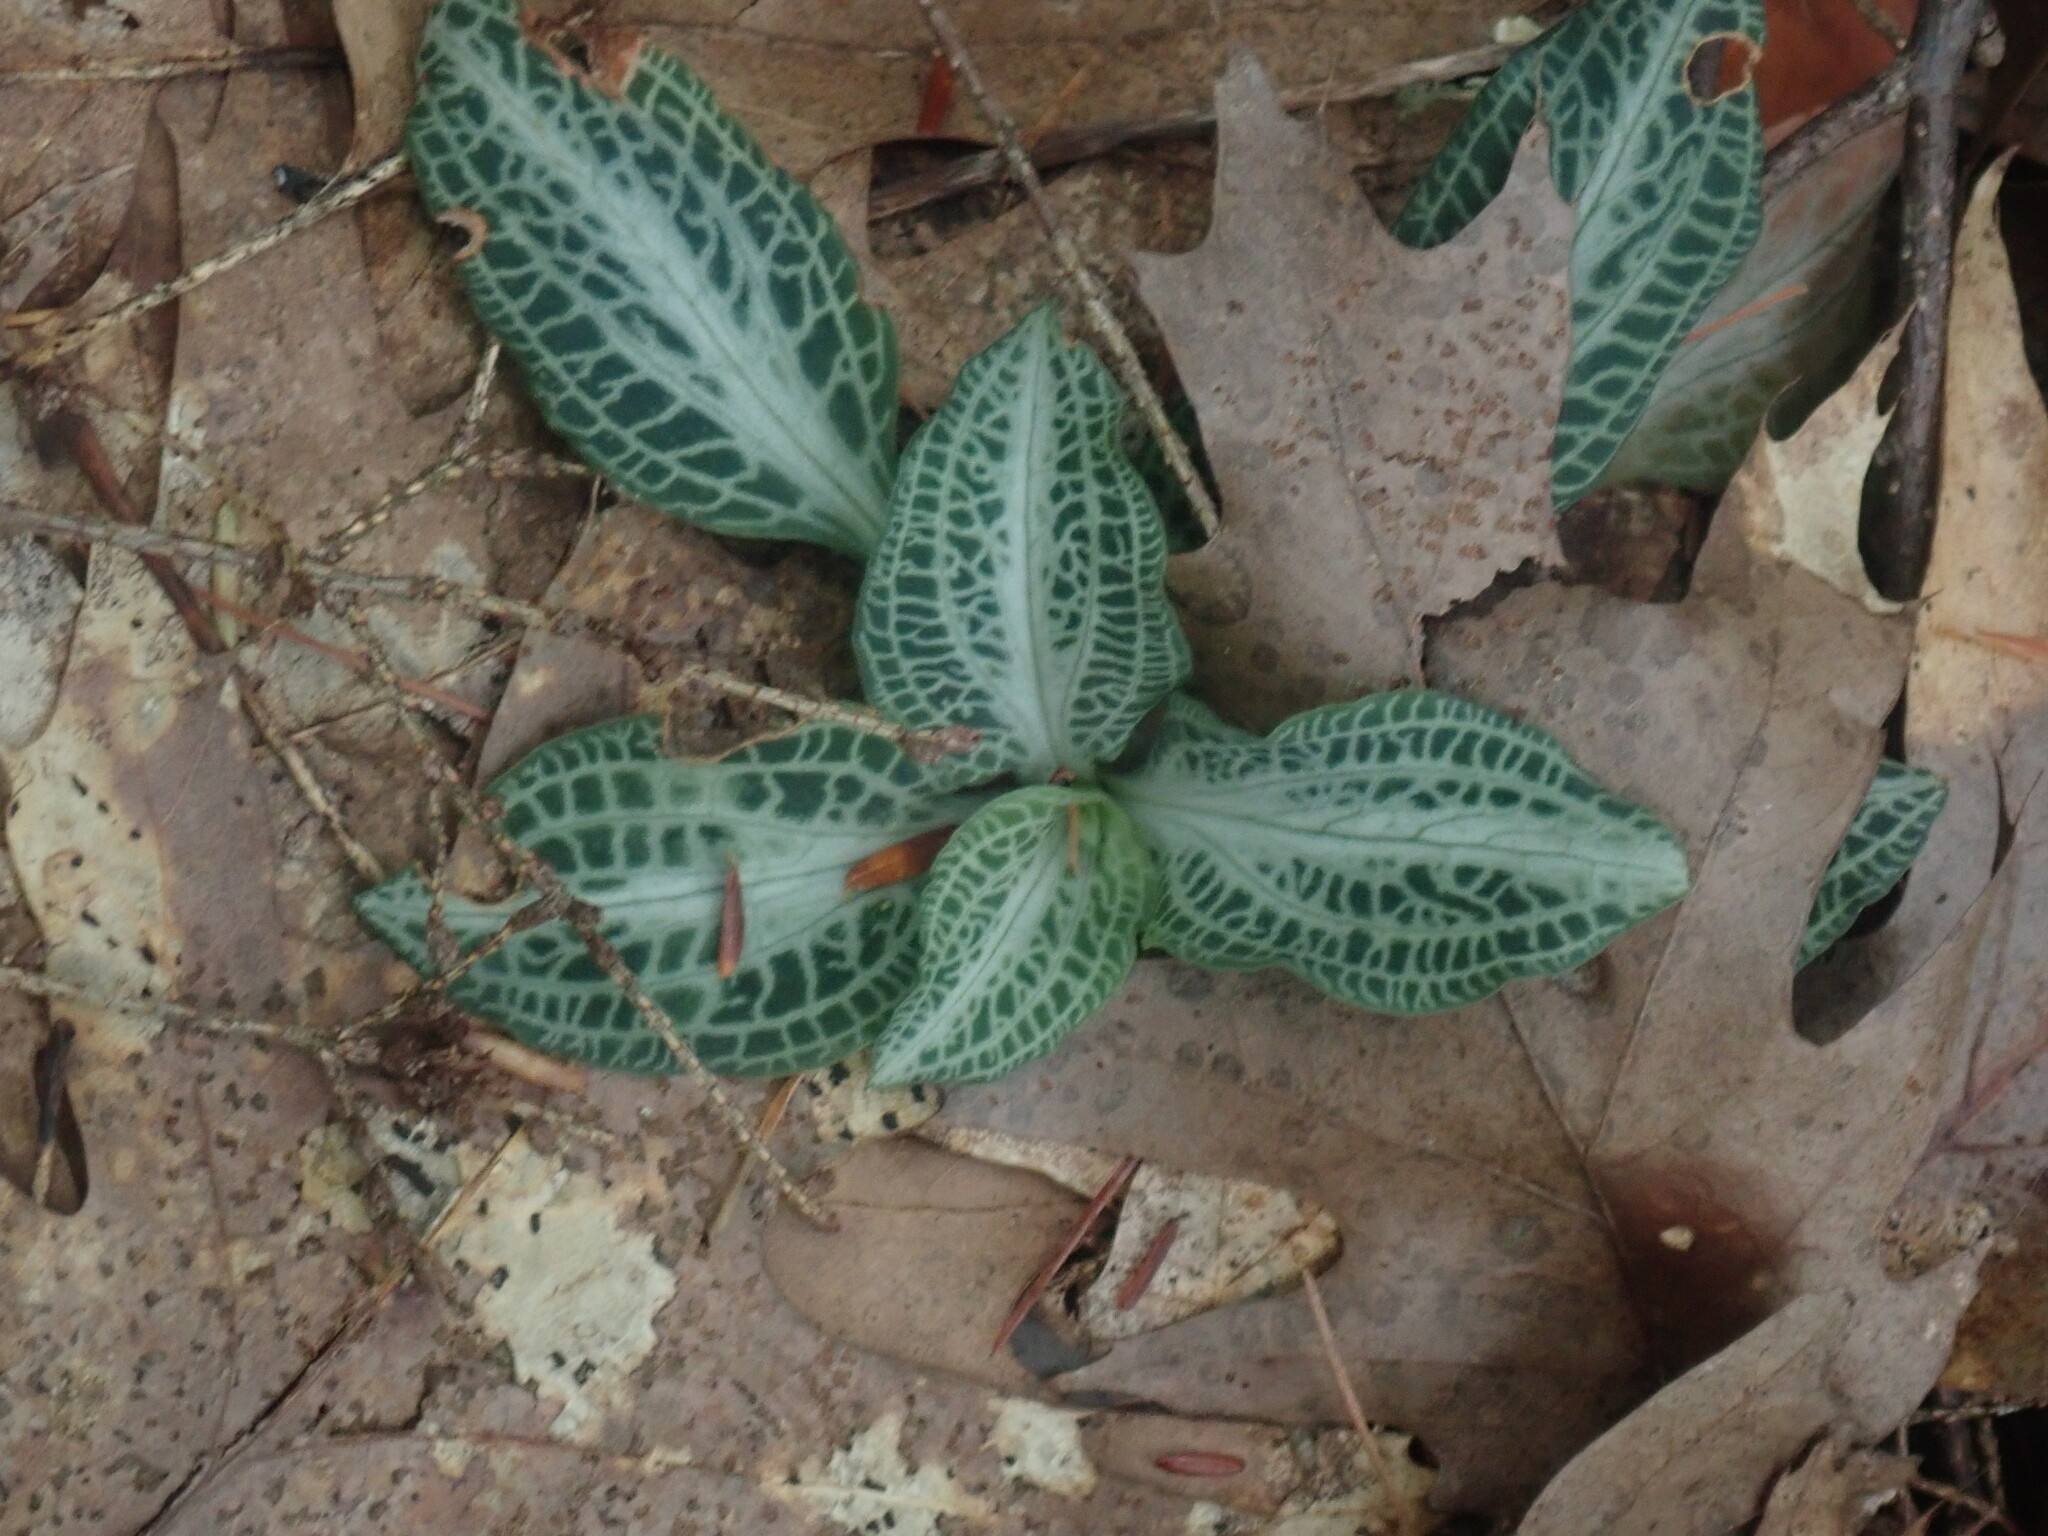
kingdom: Plantae
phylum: Tracheophyta
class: Liliopsida
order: Asparagales
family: Orchidaceae
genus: Goodyera
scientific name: Goodyera pubescens
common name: Downy rattlesnake-plantain
